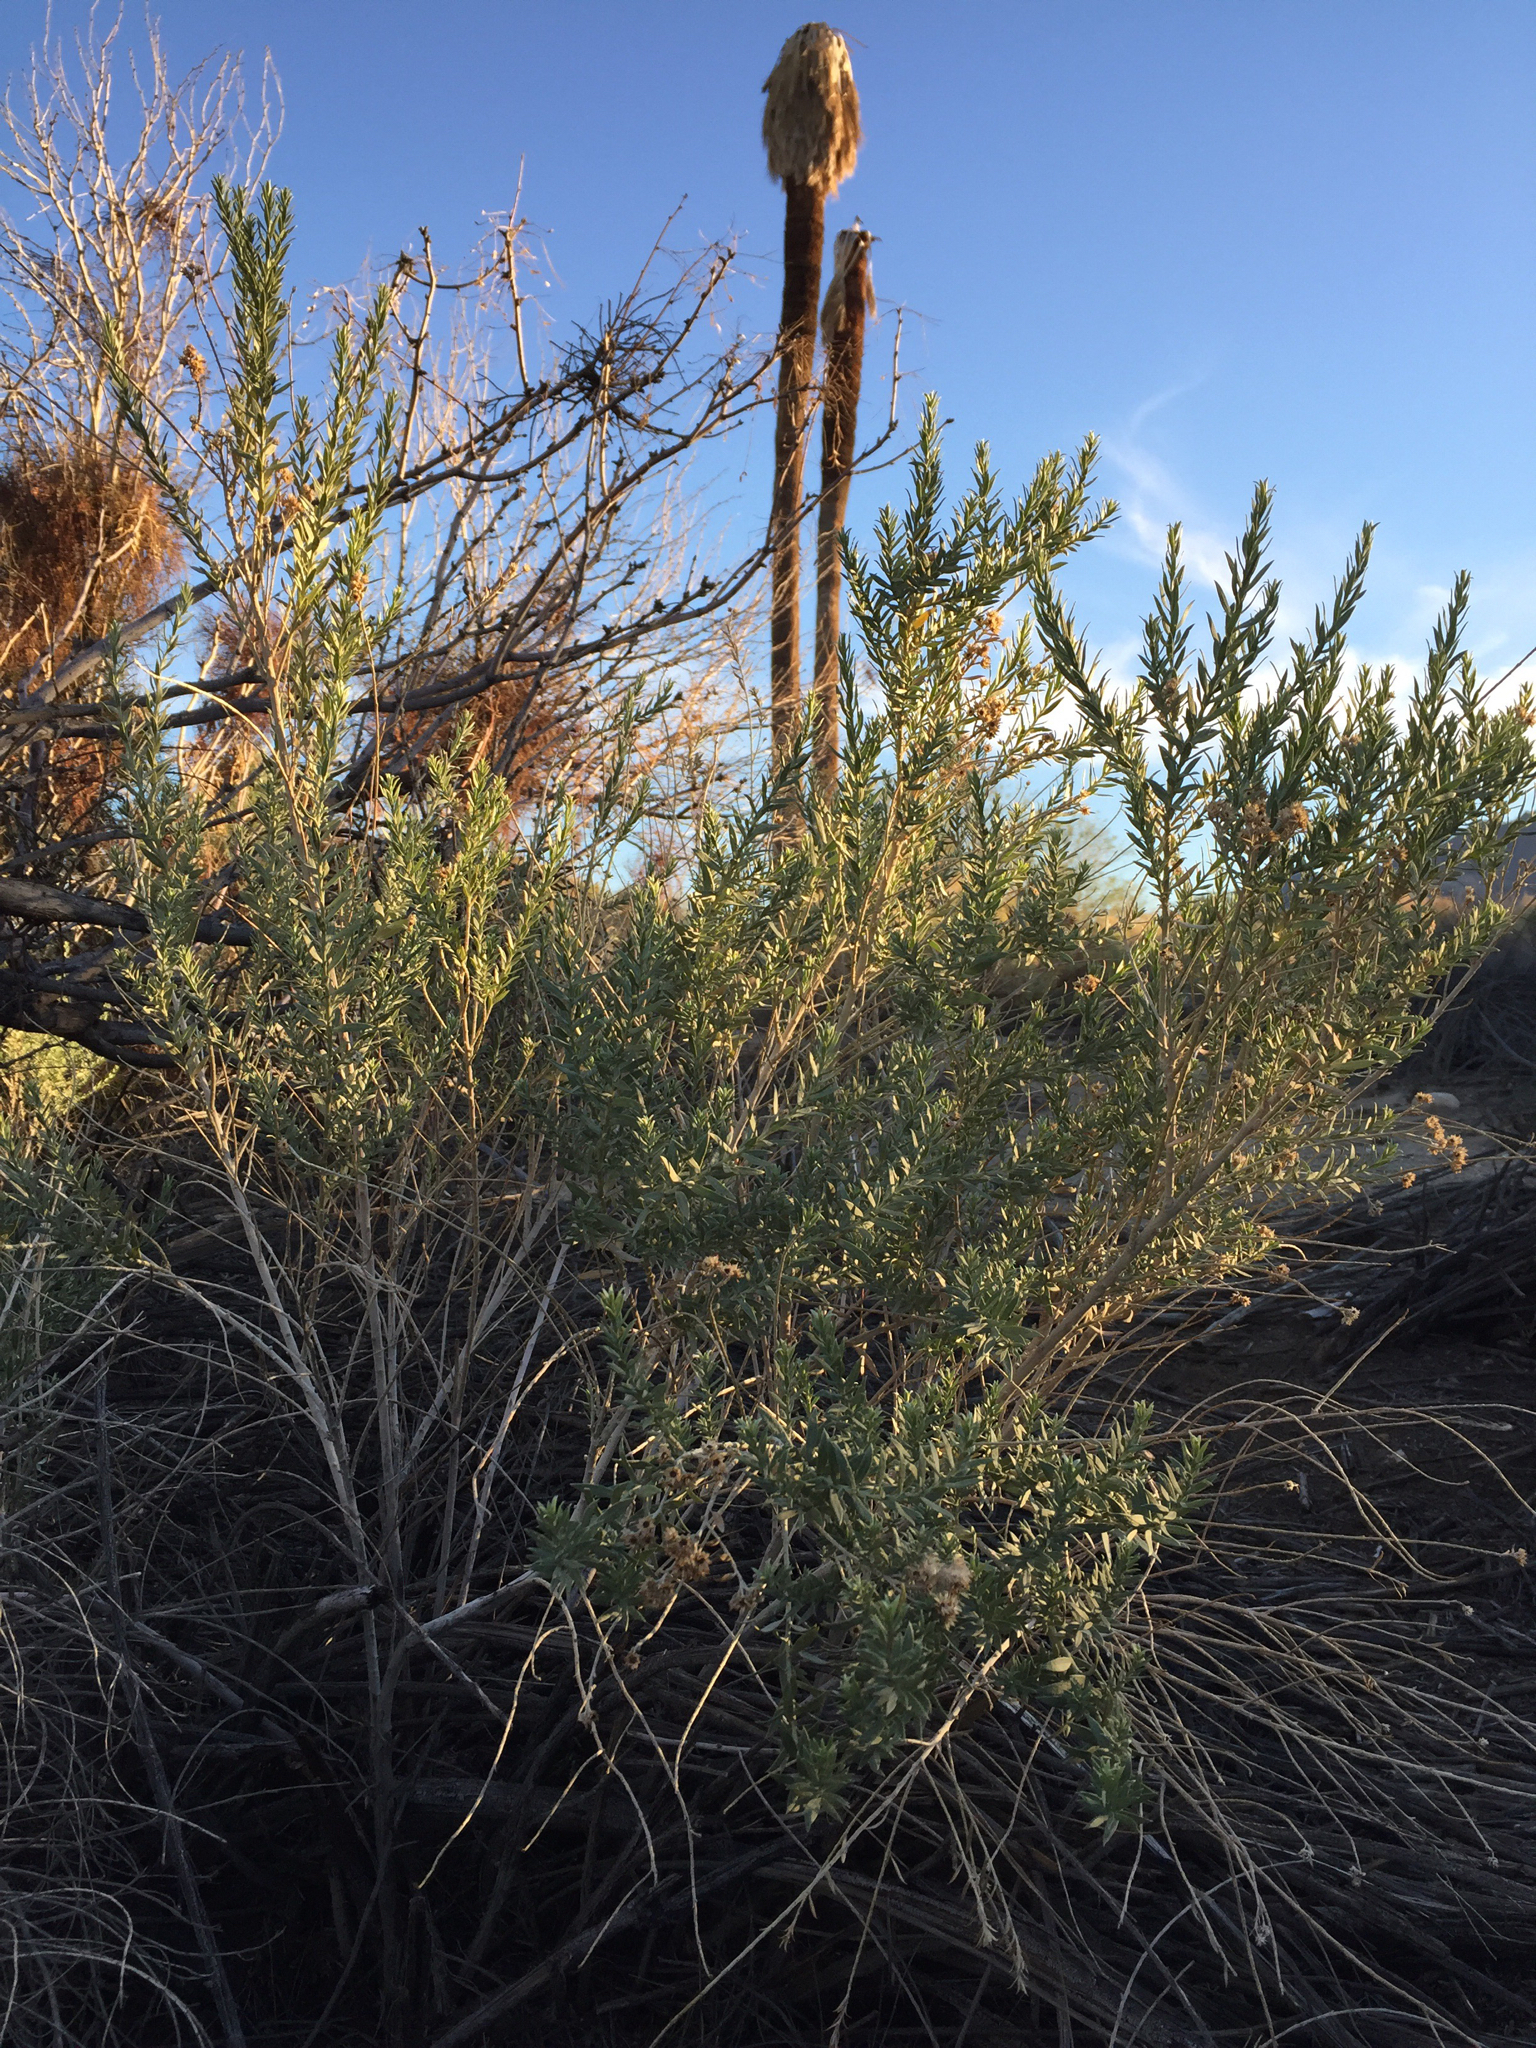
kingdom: Plantae
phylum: Tracheophyta
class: Magnoliopsida
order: Asterales
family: Asteraceae
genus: Pluchea
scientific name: Pluchea sericea
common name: Arrow-weed
